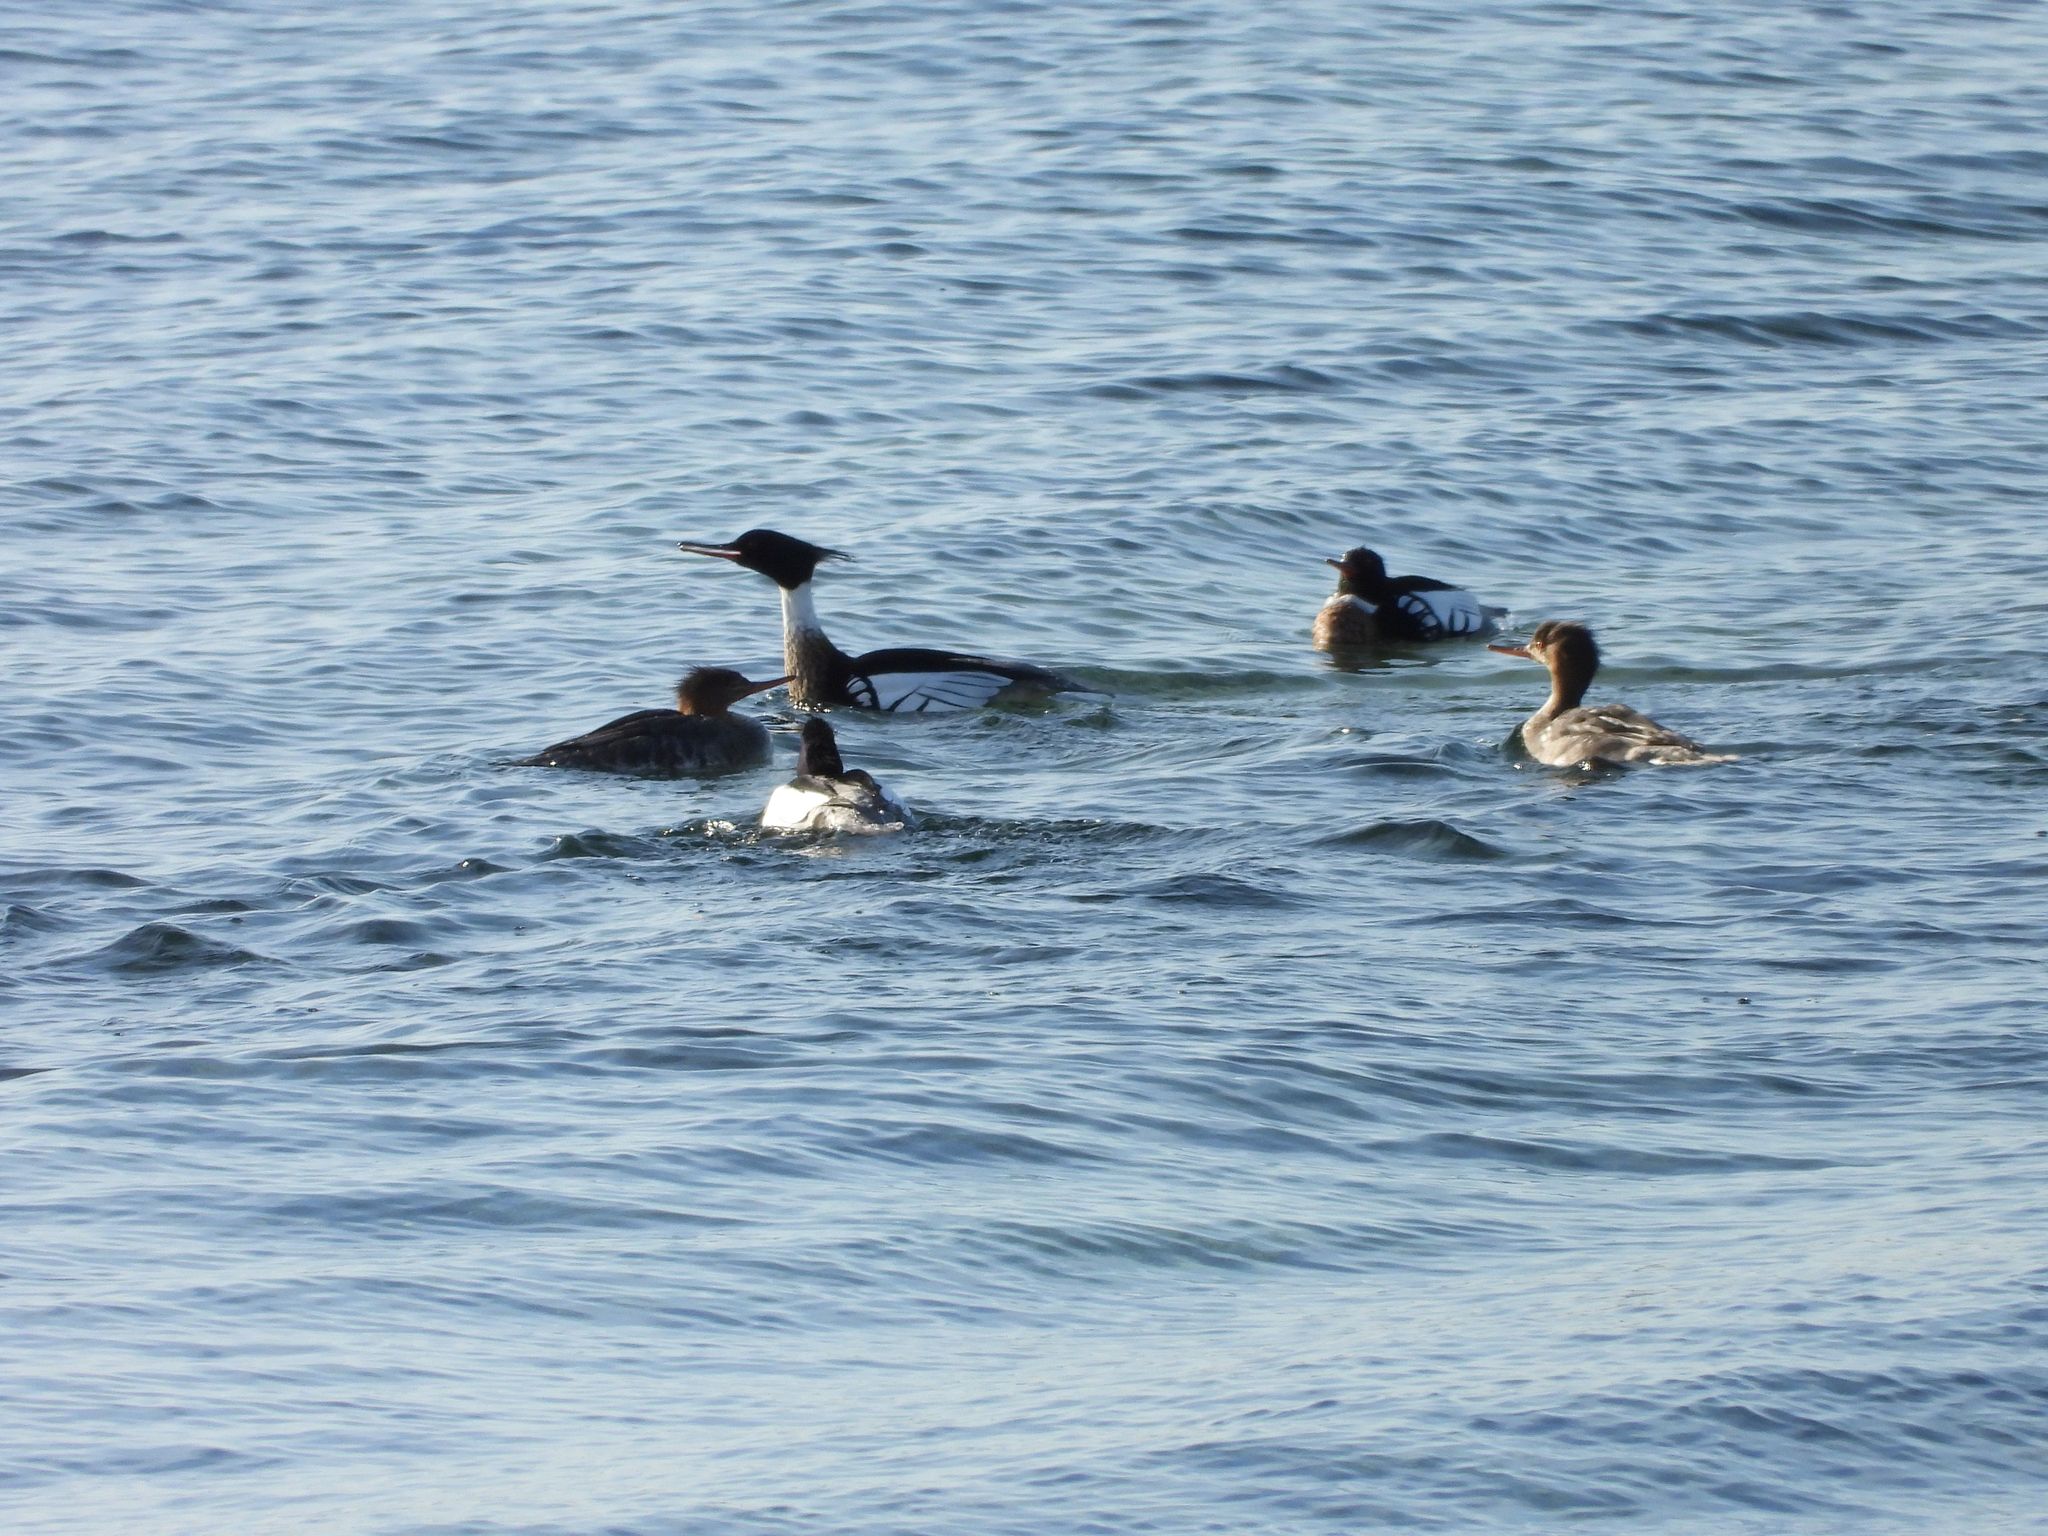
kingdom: Animalia
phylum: Chordata
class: Aves
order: Anseriformes
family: Anatidae
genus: Mergus
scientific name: Mergus serrator
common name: Red-breasted merganser
